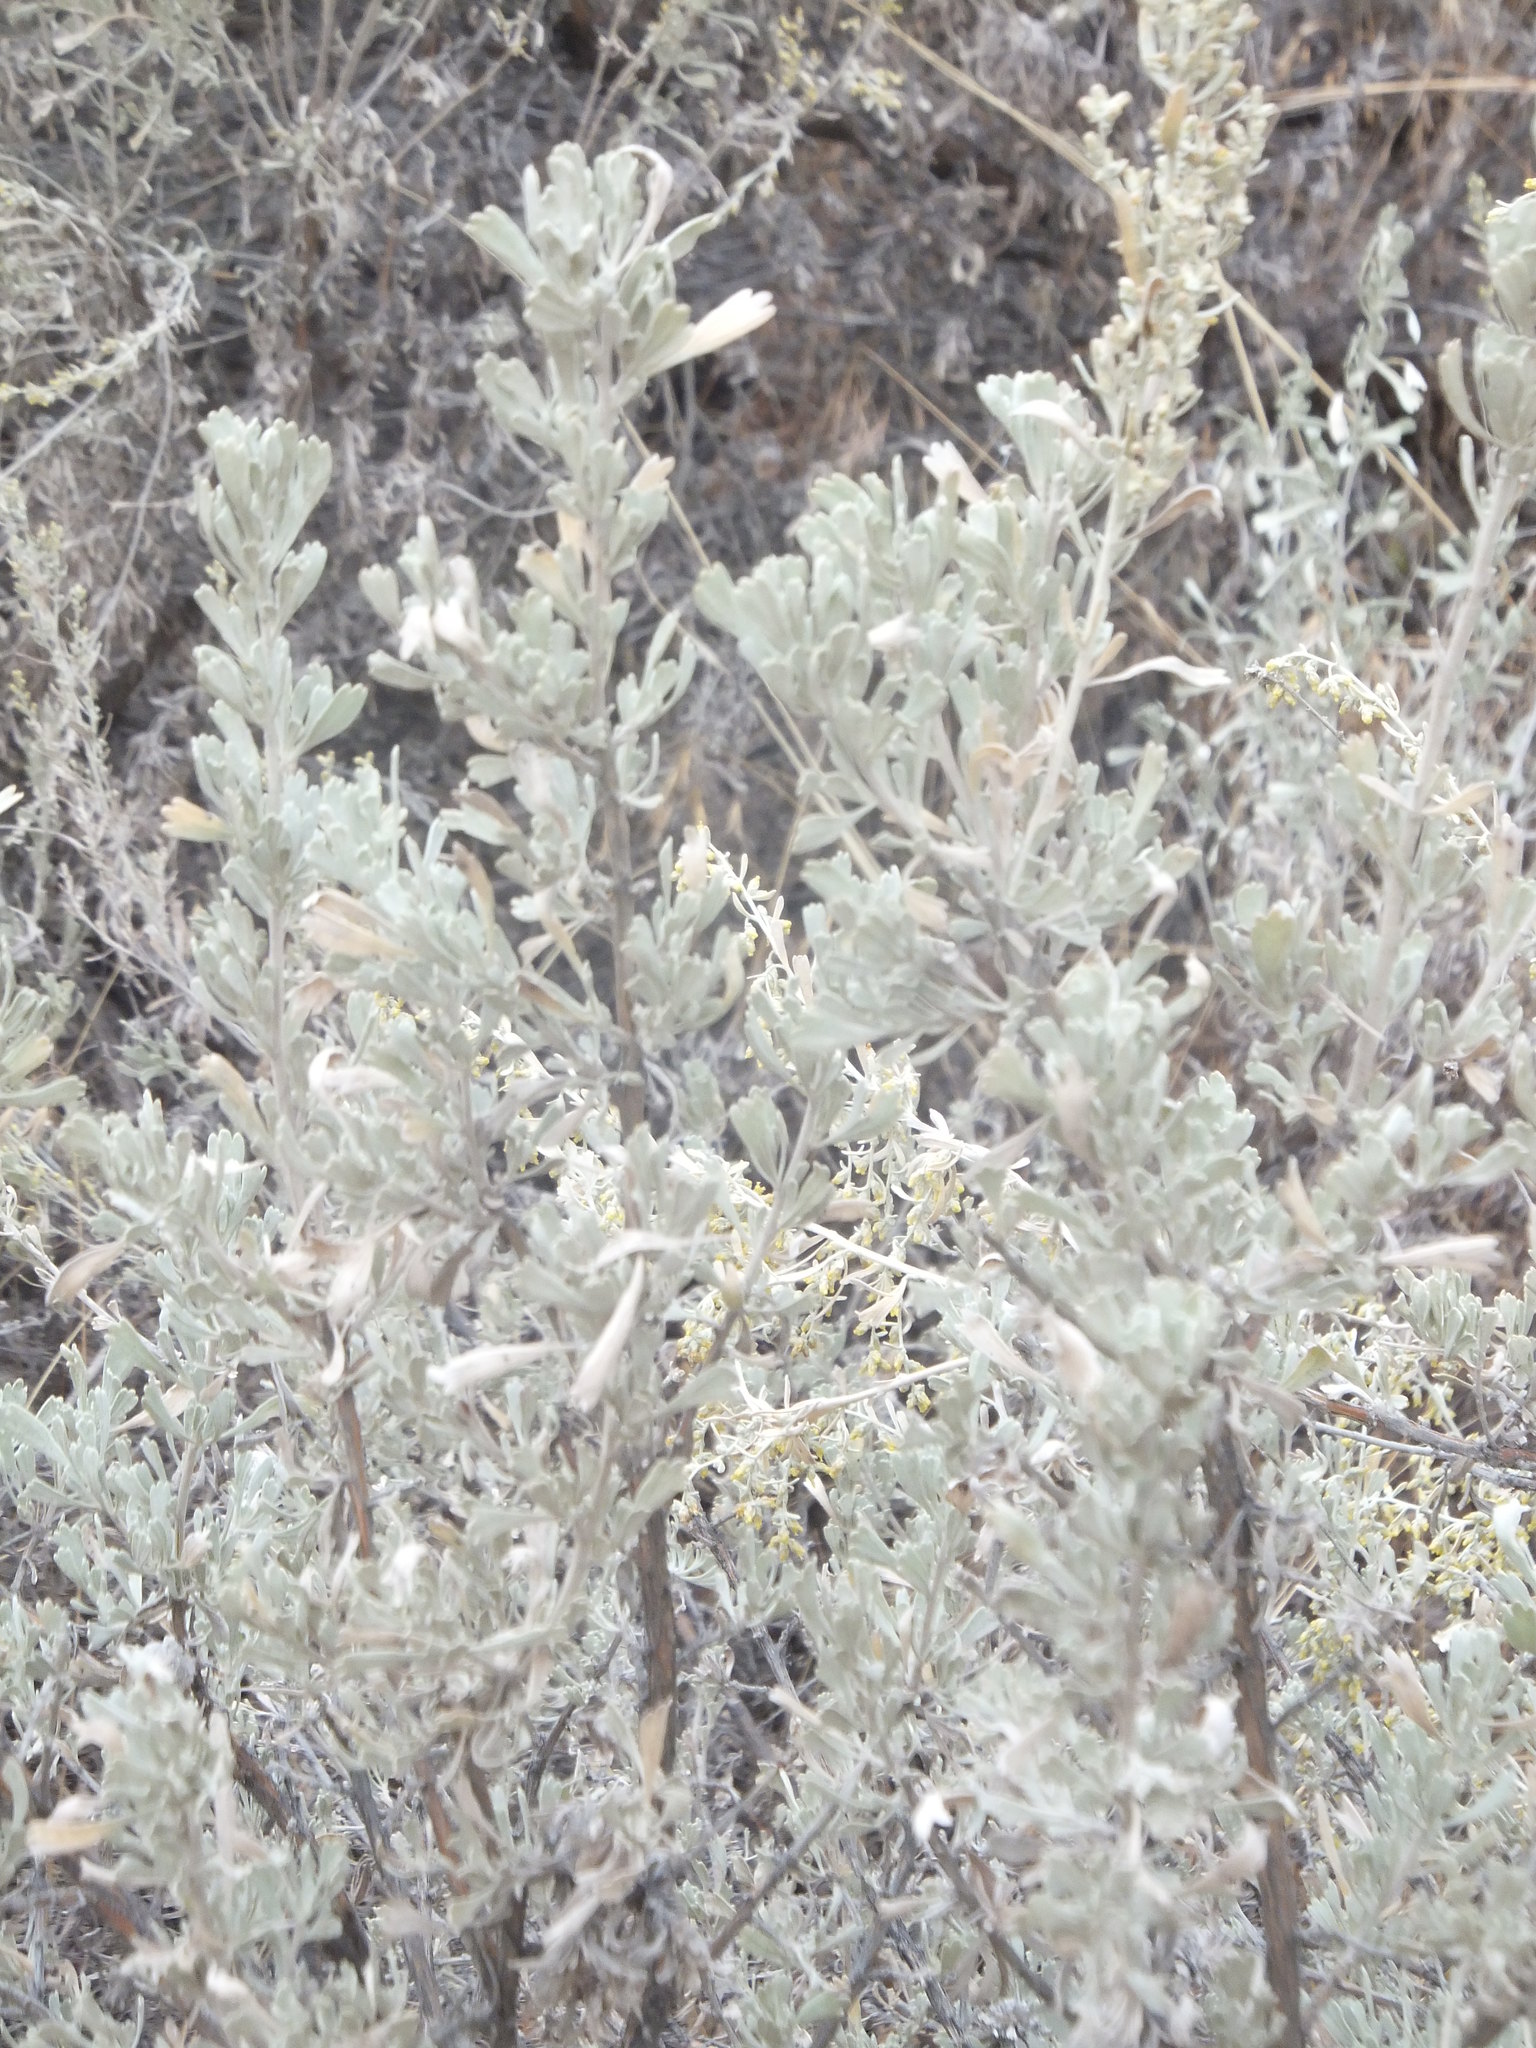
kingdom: Plantae
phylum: Tracheophyta
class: Magnoliopsida
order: Asterales
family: Asteraceae
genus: Artemisia
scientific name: Artemisia tridentata
